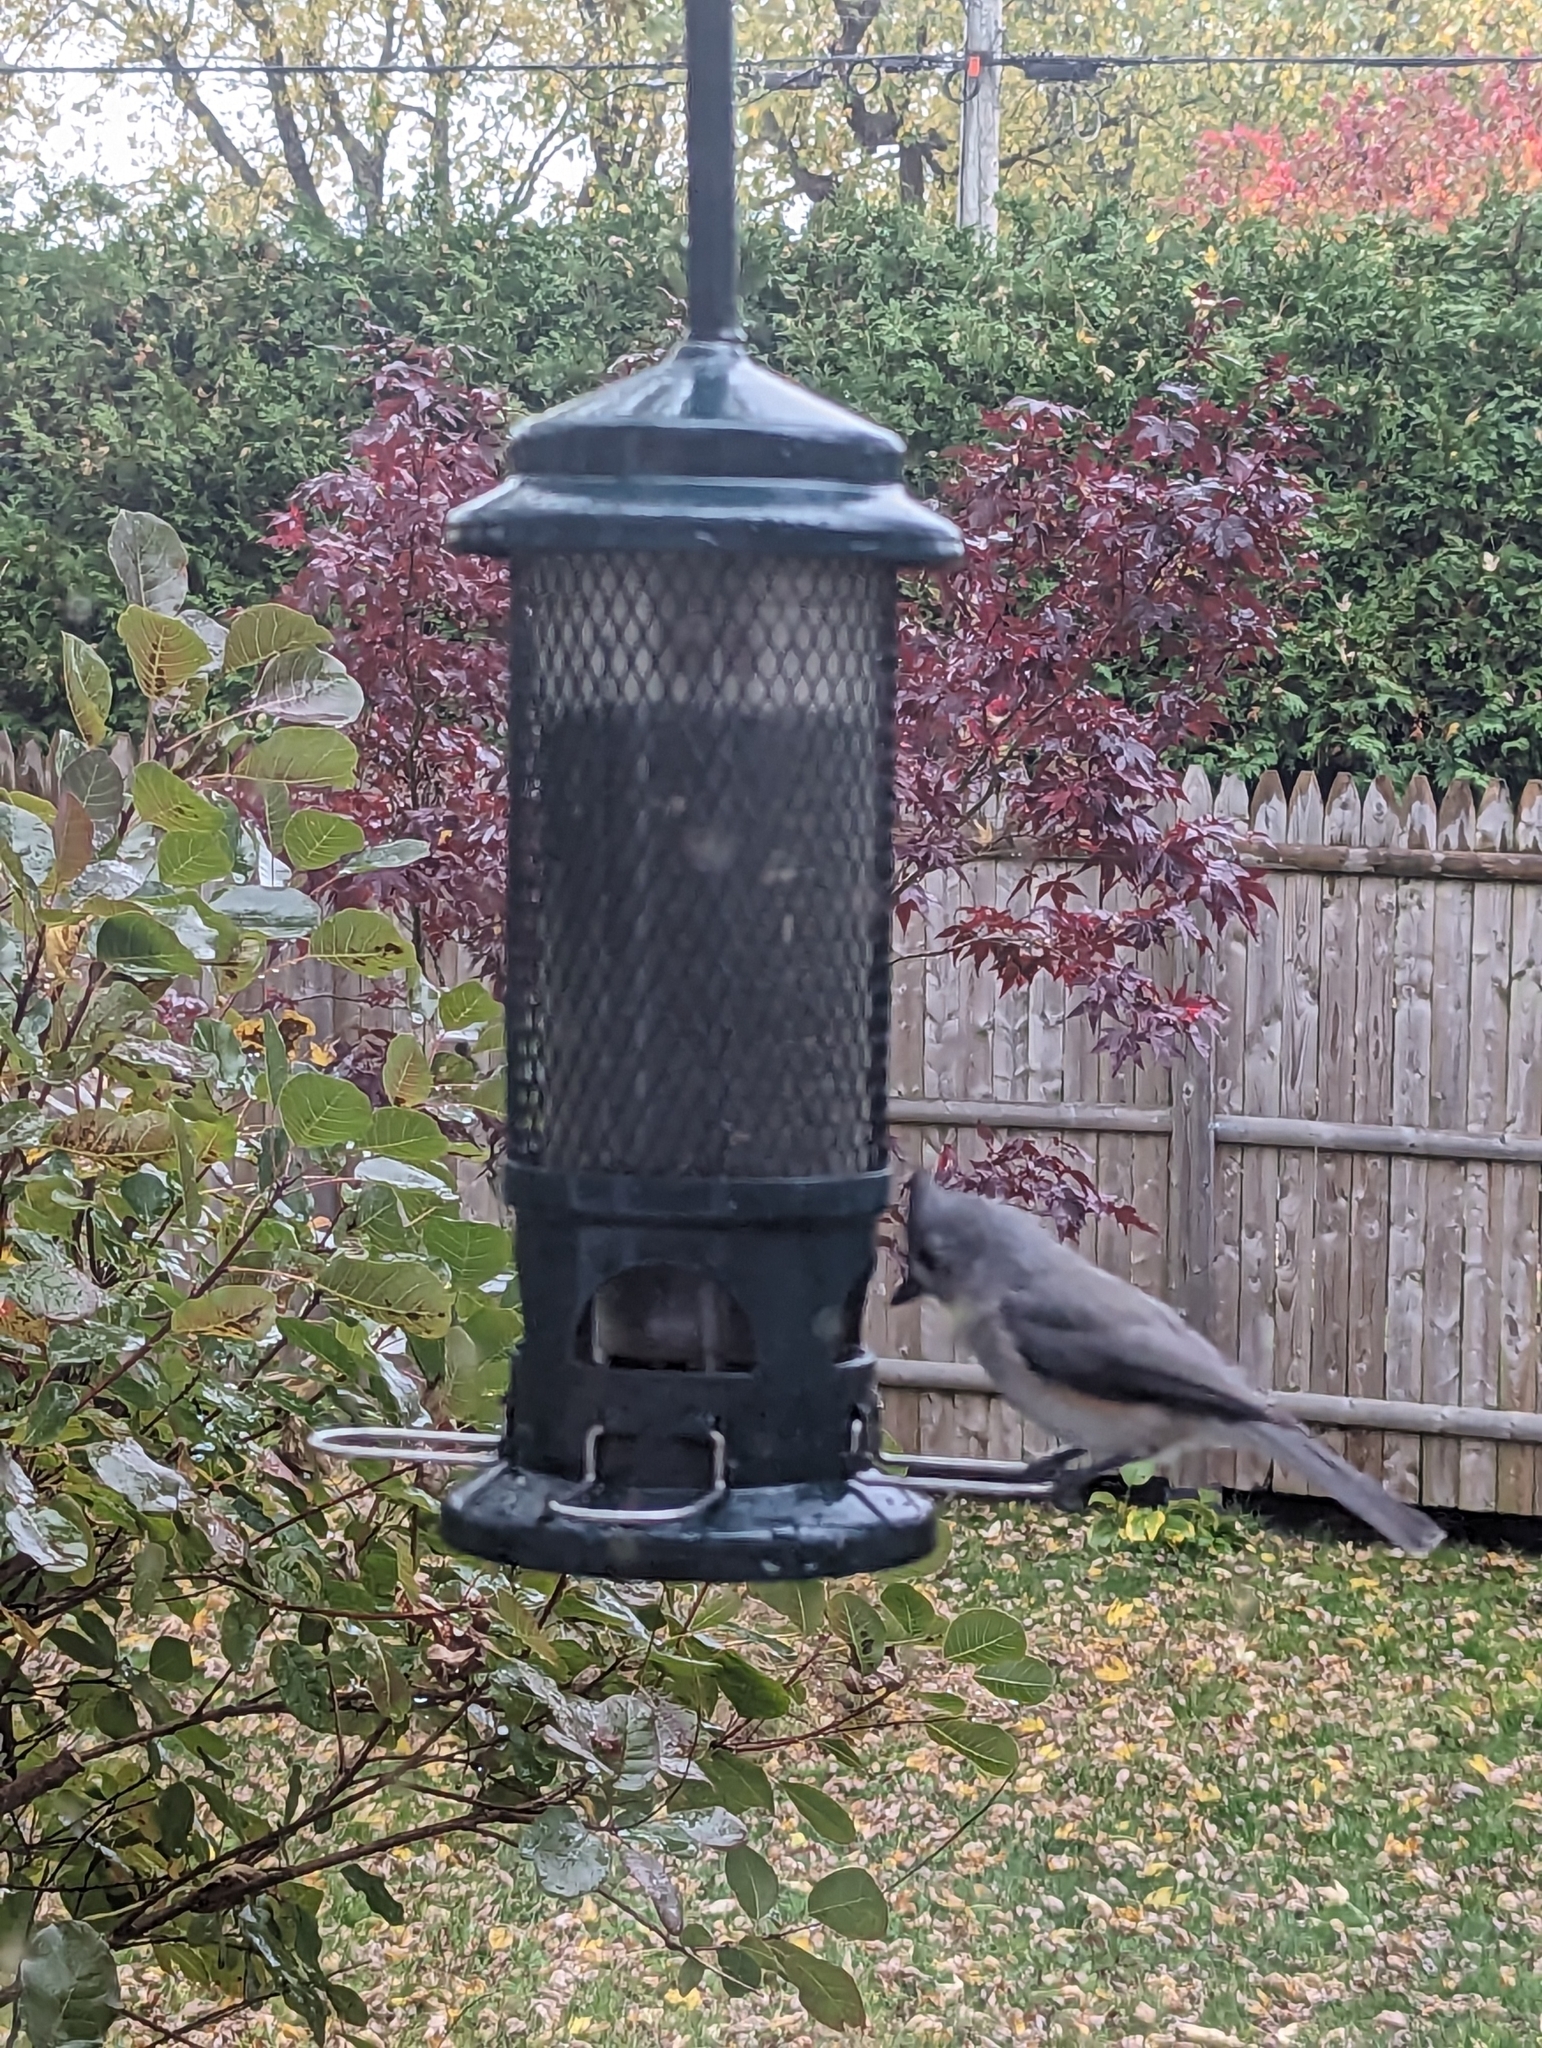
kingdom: Animalia
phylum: Chordata
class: Aves
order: Passeriformes
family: Paridae
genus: Baeolophus
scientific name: Baeolophus bicolor
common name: Tufted titmouse
